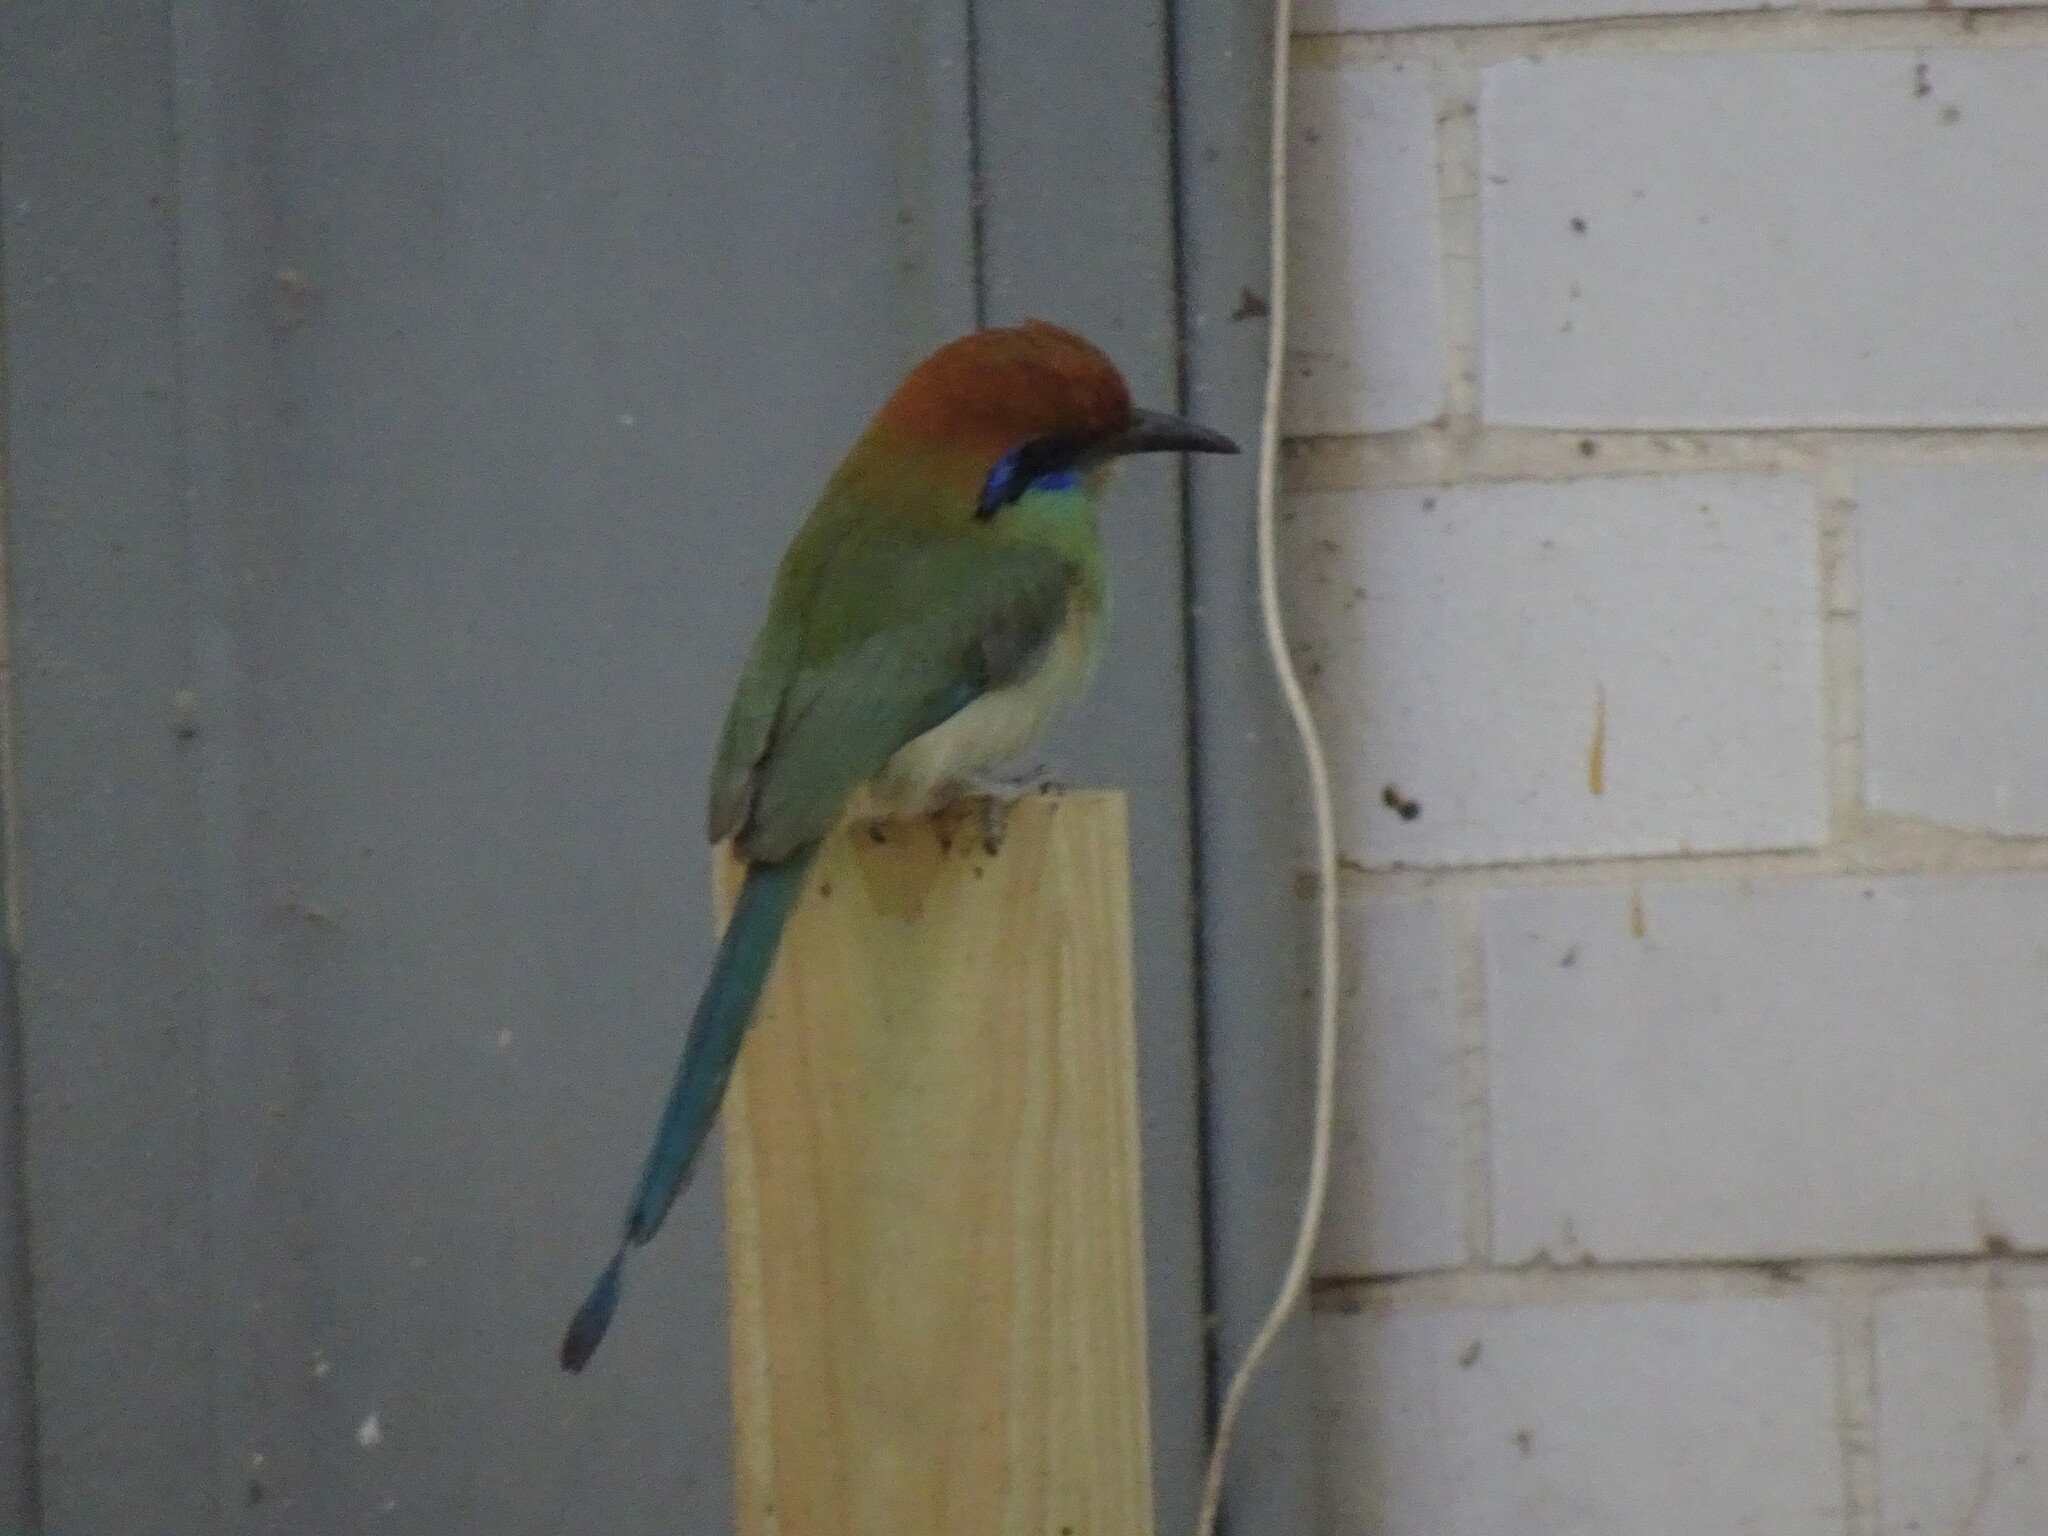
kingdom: Animalia
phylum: Chordata
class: Aves
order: Coraciiformes
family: Momotidae
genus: Momotus
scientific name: Momotus mexicanus
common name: Russet-crowned motmot
